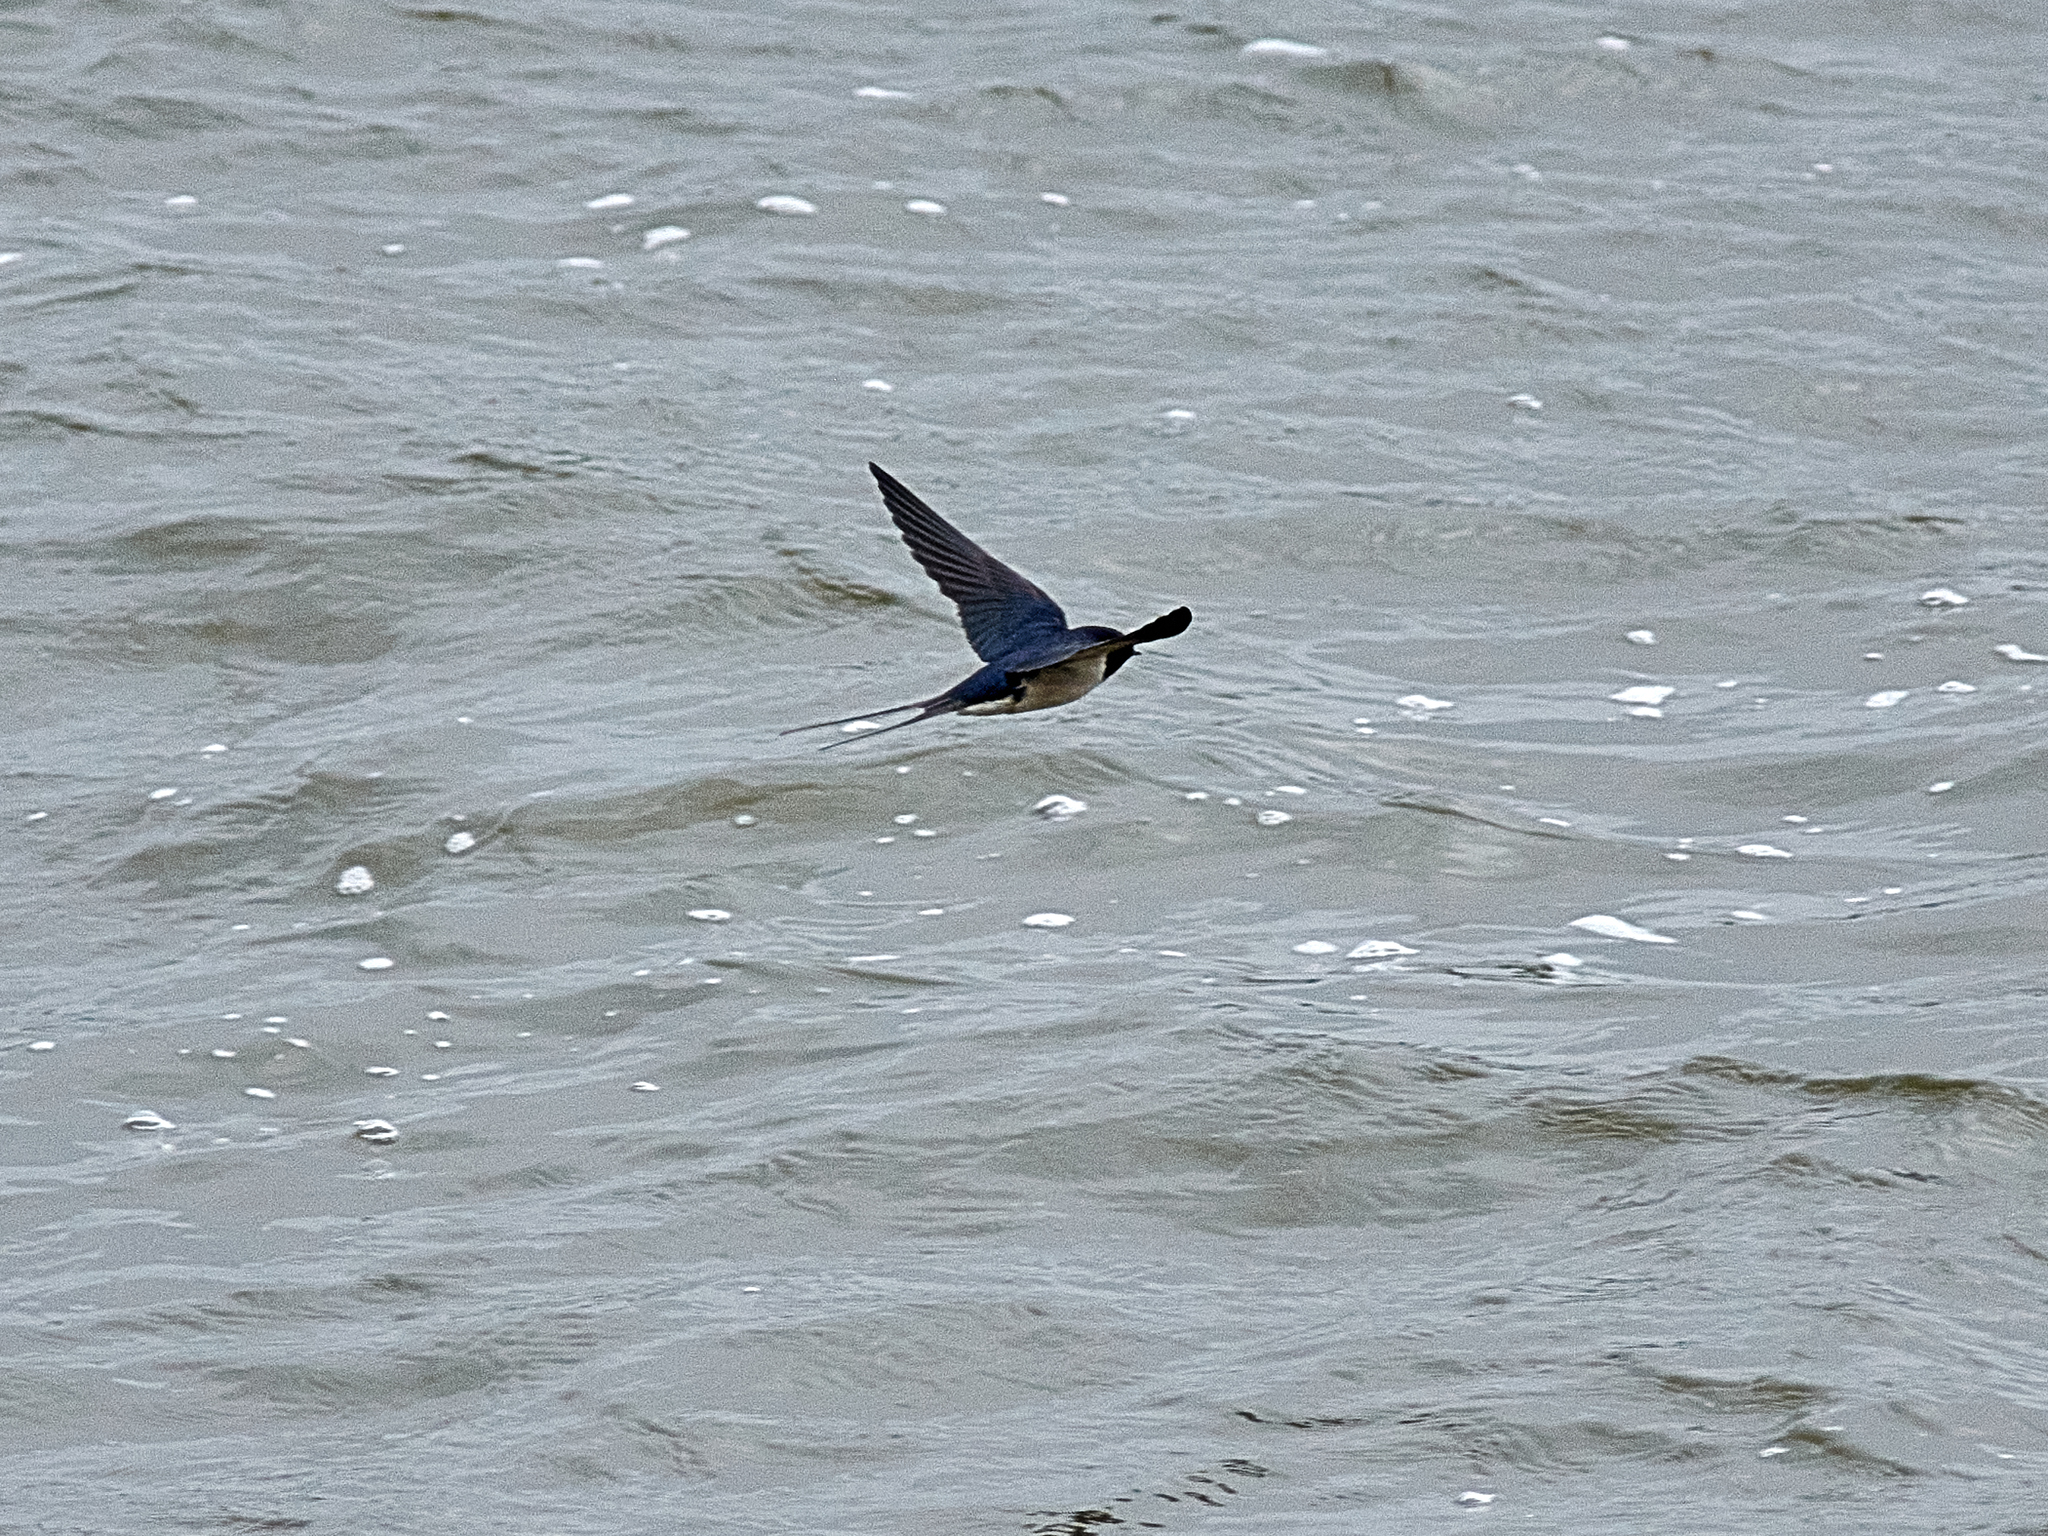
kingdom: Animalia
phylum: Chordata
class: Aves
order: Passeriformes
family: Hirundinidae
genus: Hirundo
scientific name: Hirundo rustica
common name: Barn swallow
